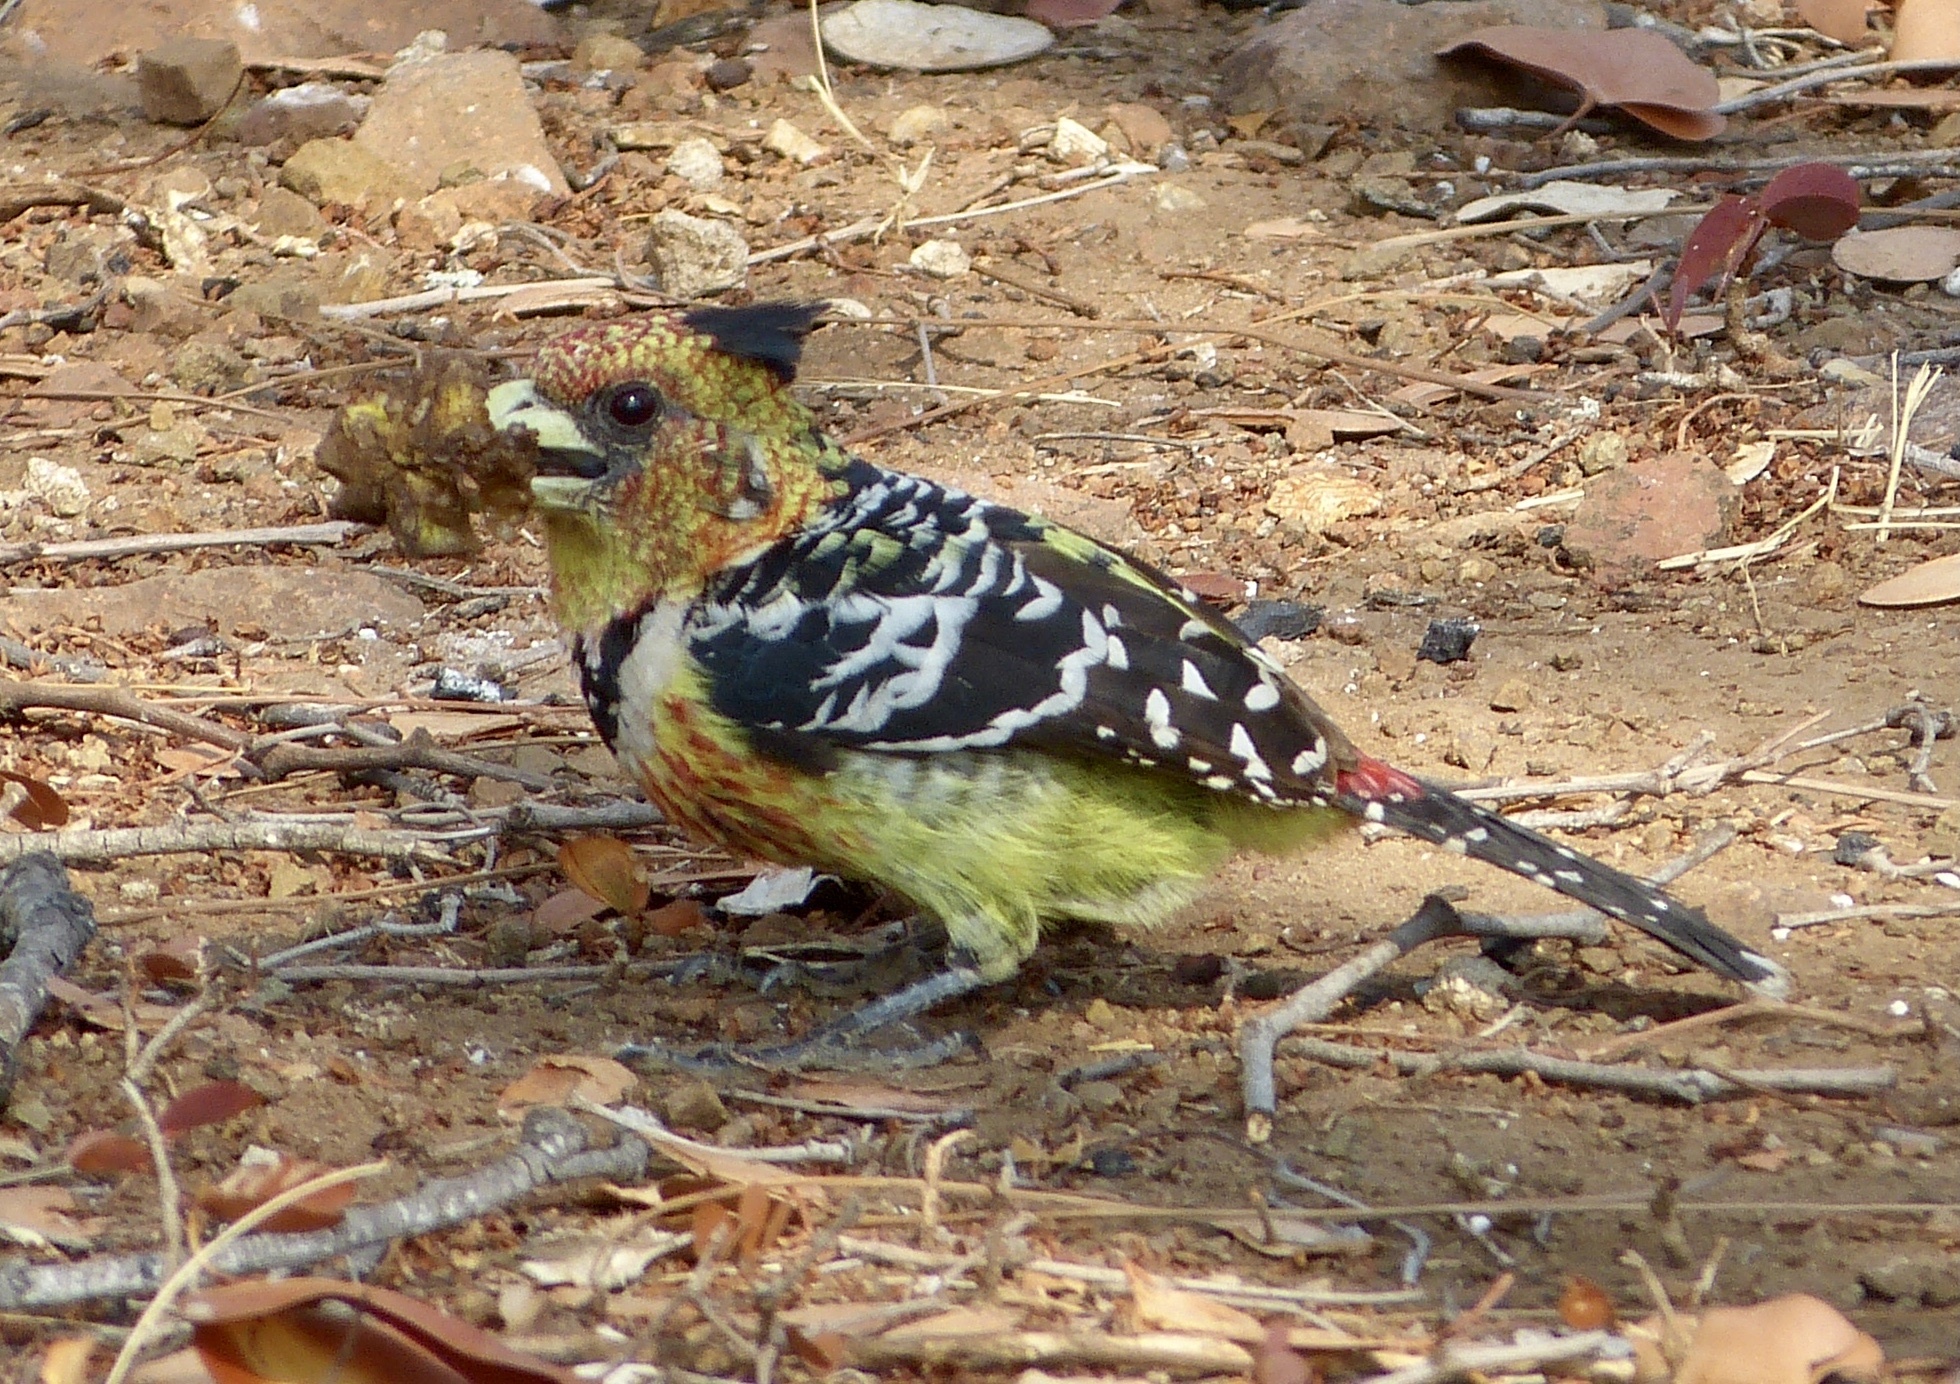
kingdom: Animalia
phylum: Chordata
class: Aves
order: Piciformes
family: Lybiidae
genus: Trachyphonus
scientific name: Trachyphonus vaillantii
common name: Crested barbet
